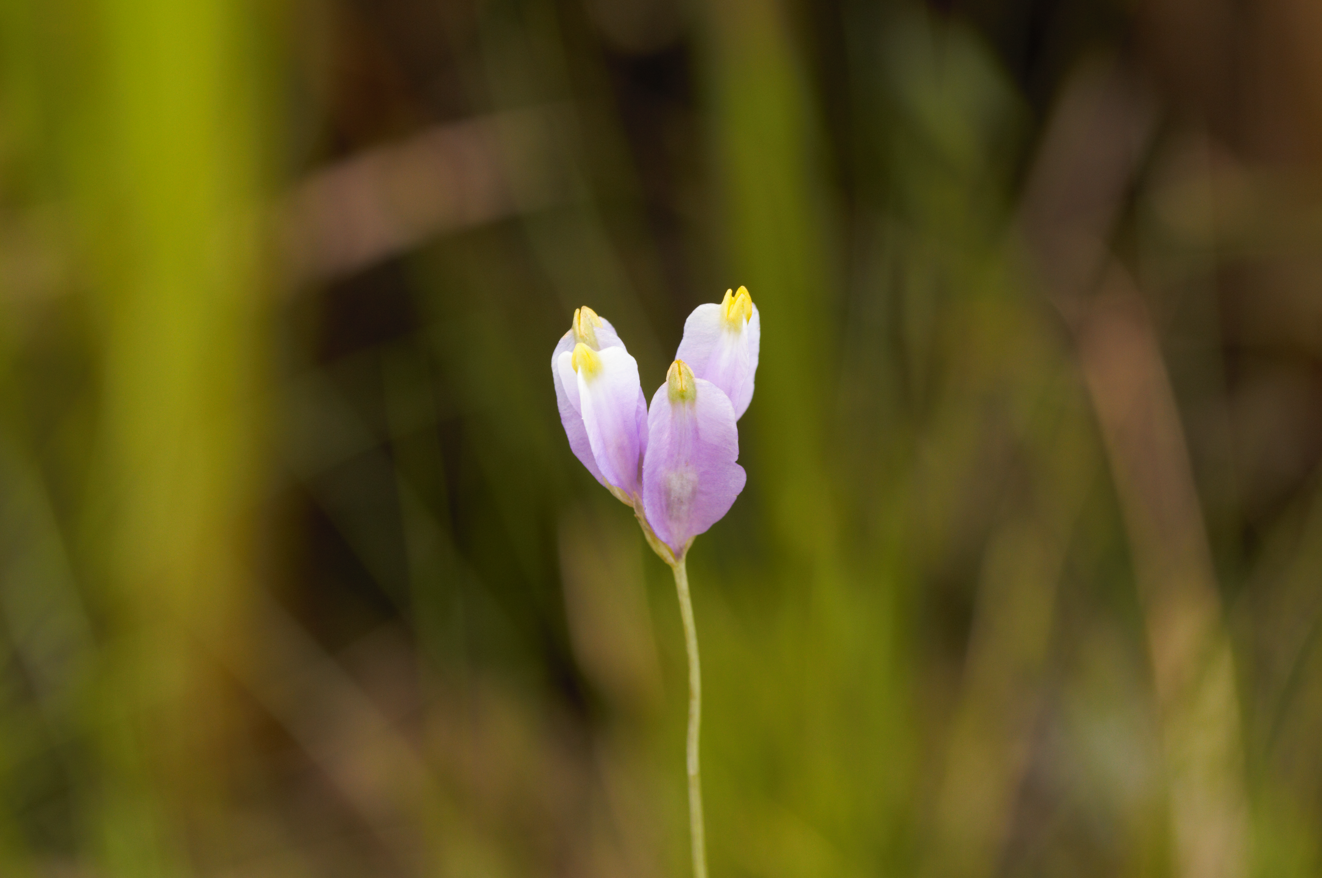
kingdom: Plantae
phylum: Tracheophyta
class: Liliopsida
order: Dioscoreales
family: Burmanniaceae
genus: Burmannia
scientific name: Burmannia bicolor
